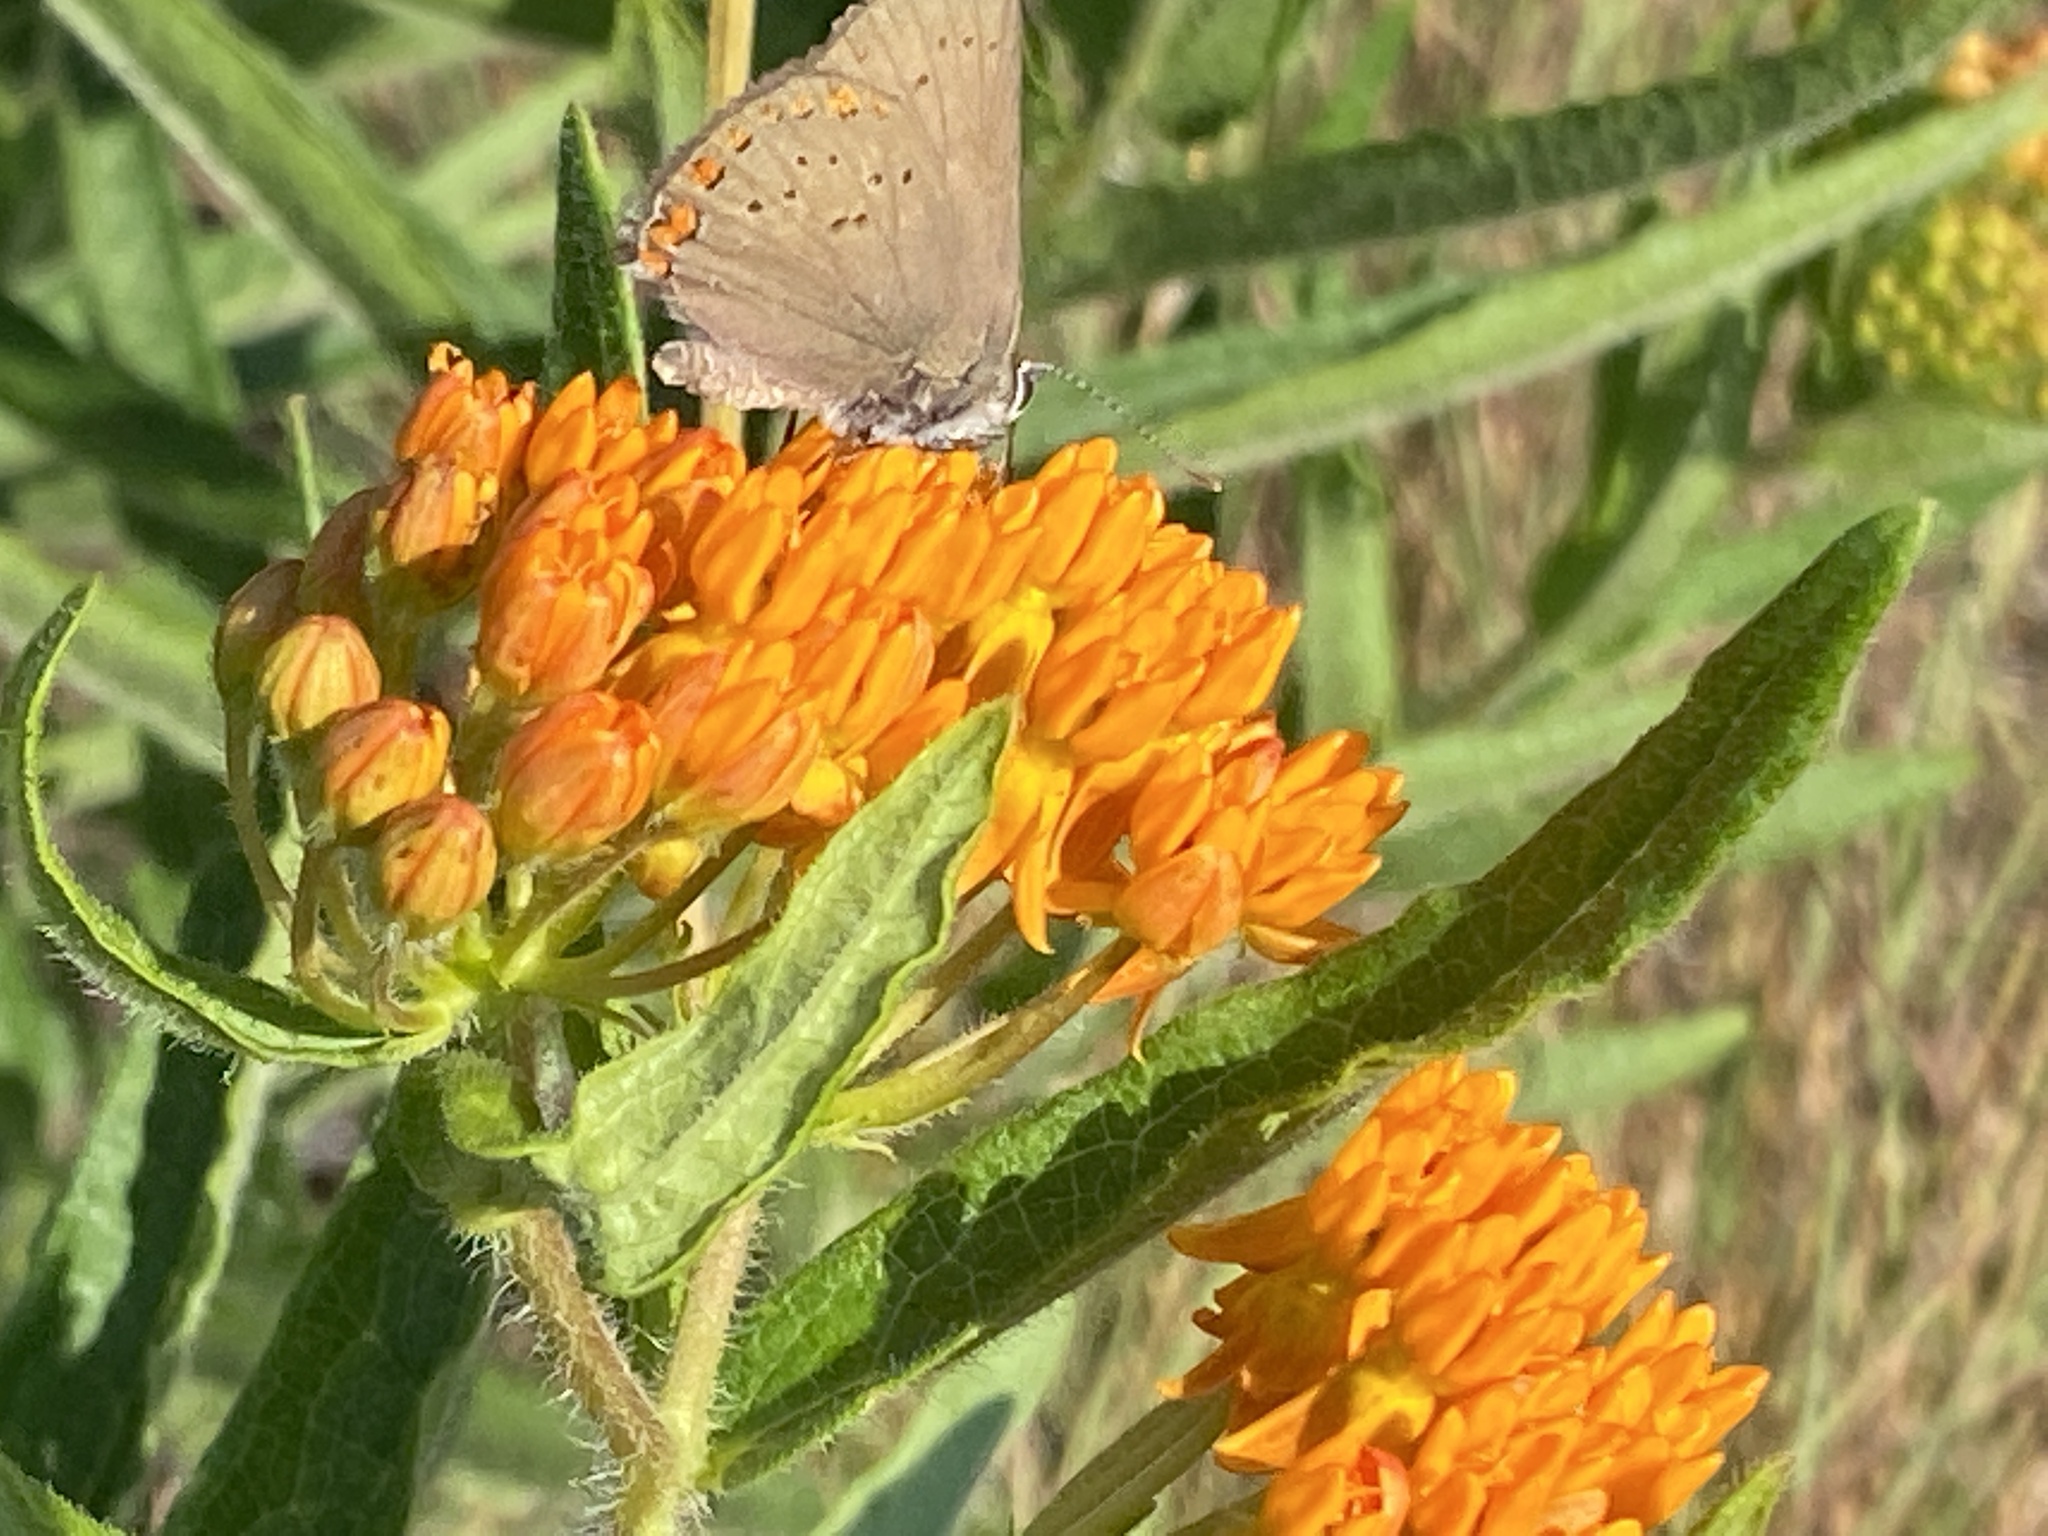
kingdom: Animalia
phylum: Arthropoda
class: Insecta
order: Lepidoptera
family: Lycaenidae
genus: Harkenclenus
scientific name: Harkenclenus titus
